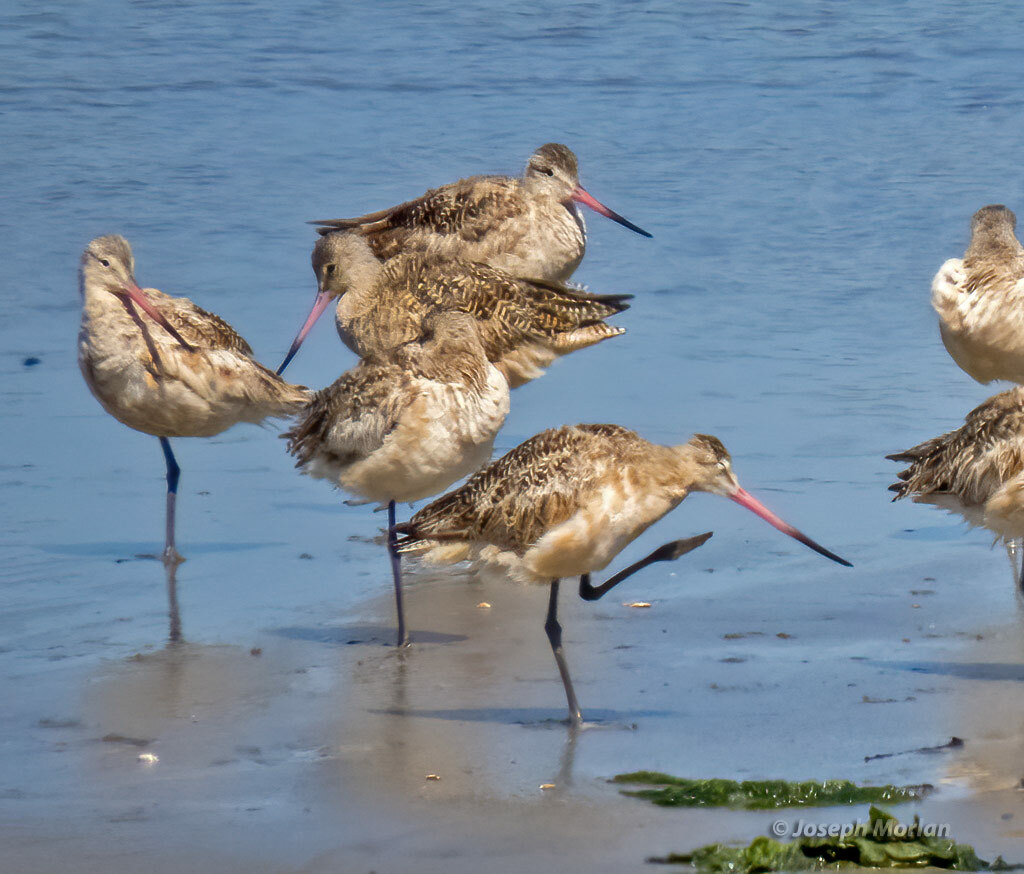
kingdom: Animalia
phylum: Chordata
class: Aves
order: Charadriiformes
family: Scolopacidae
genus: Limosa
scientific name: Limosa fedoa
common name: Marbled godwit
